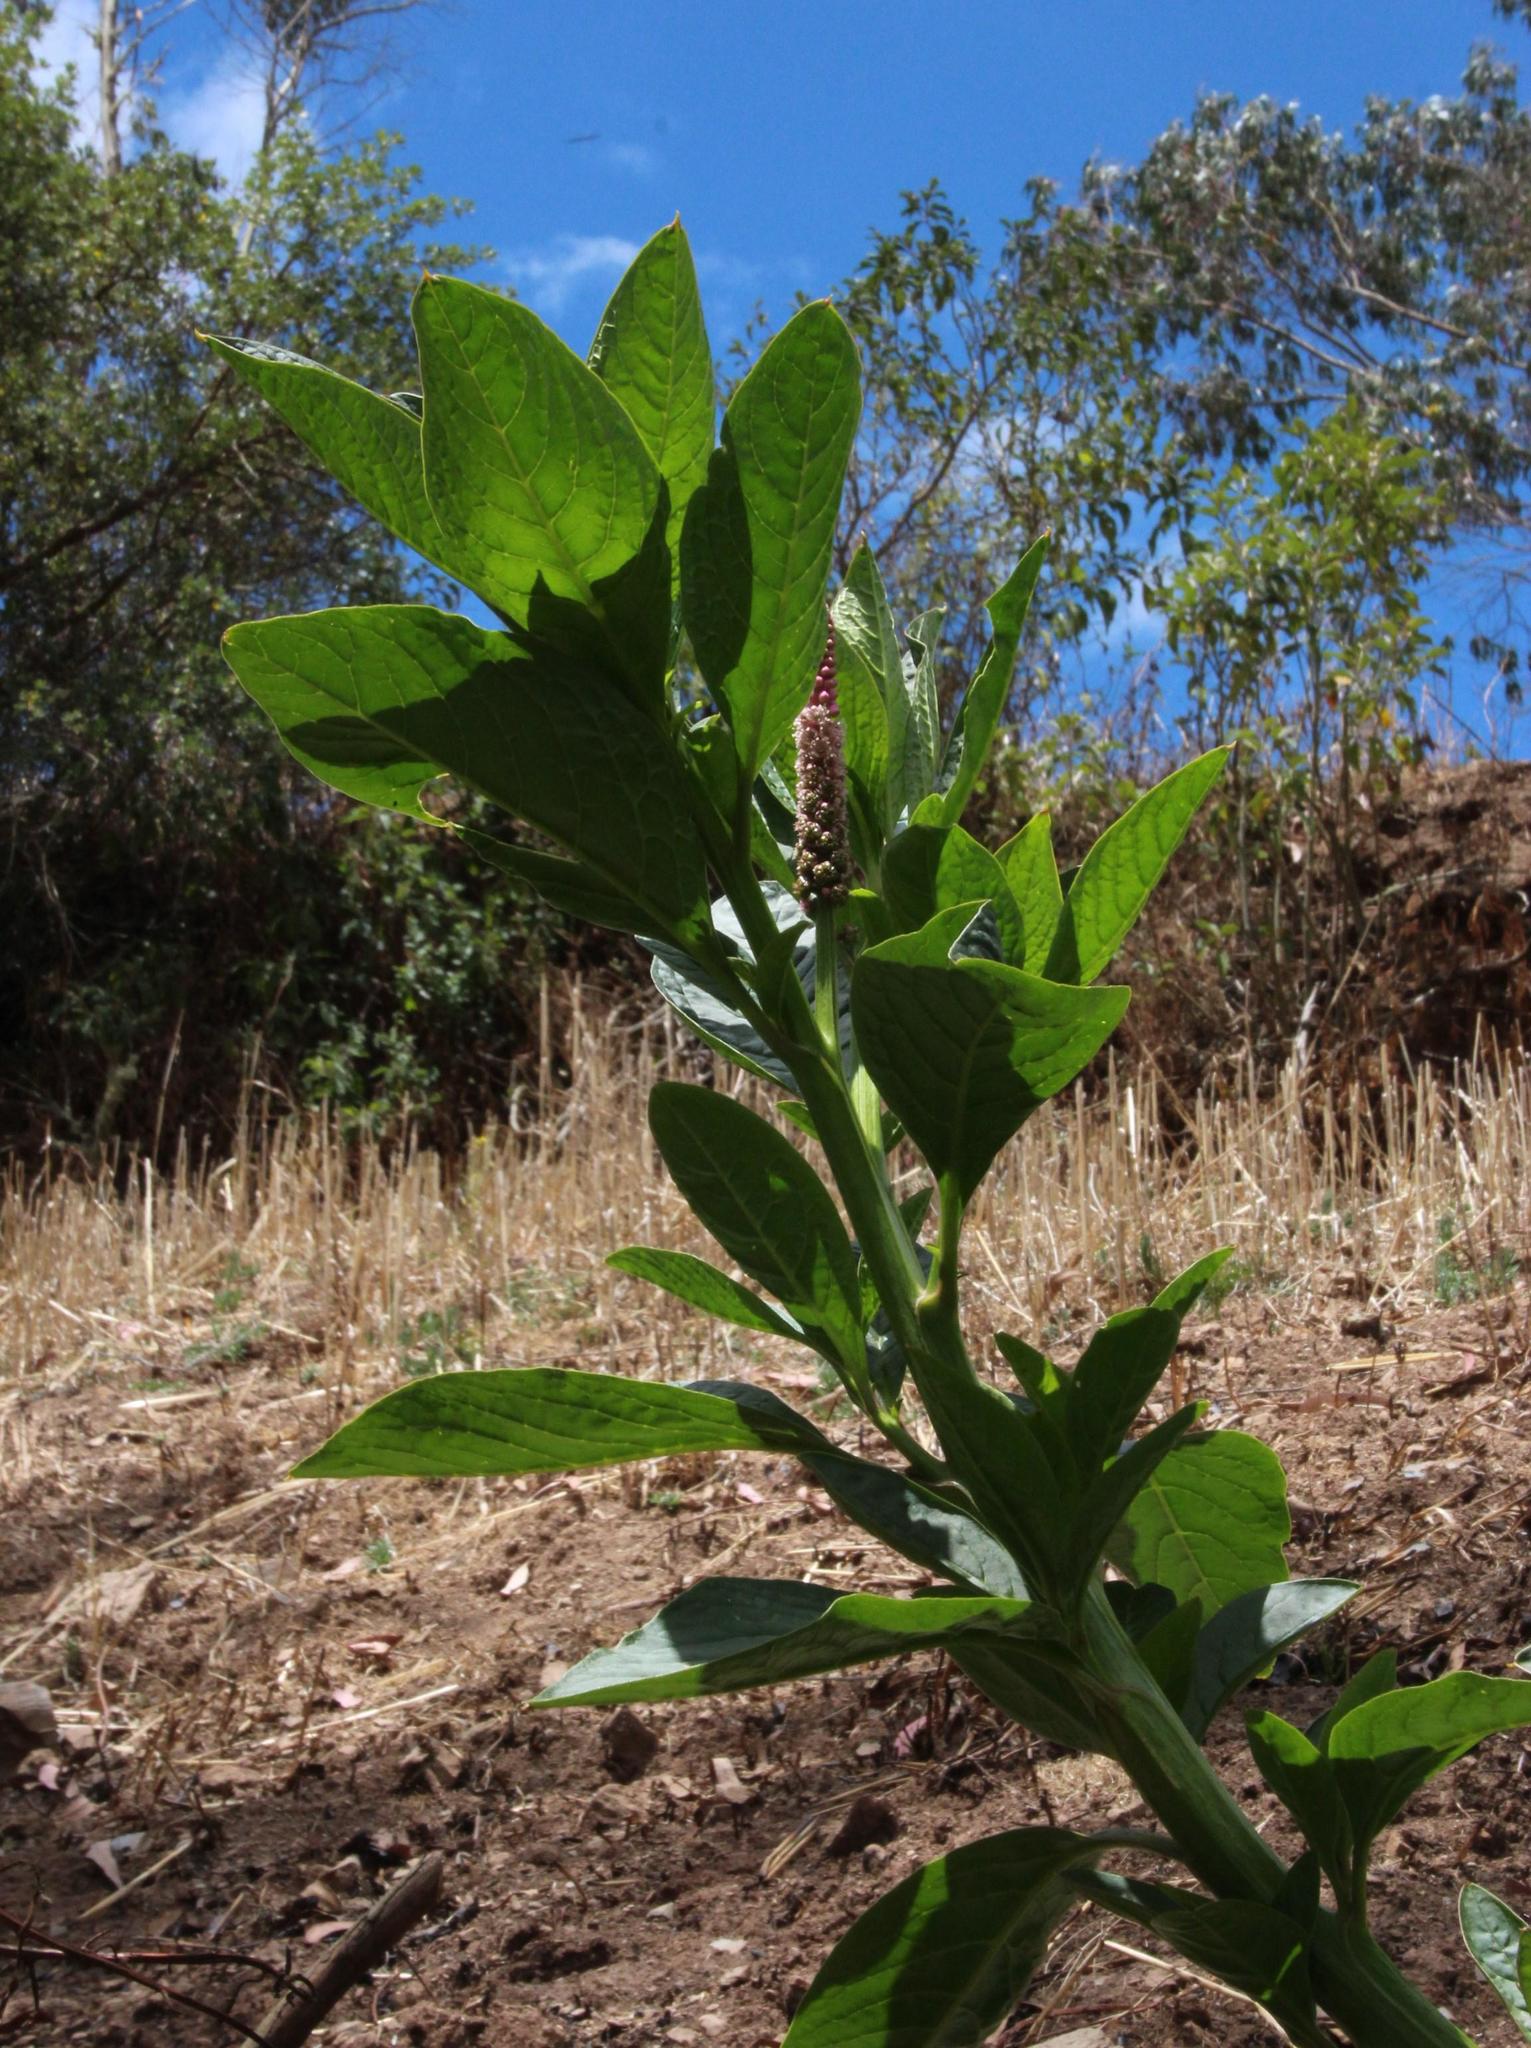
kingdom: Plantae
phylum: Tracheophyta
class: Magnoliopsida
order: Caryophyllales
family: Phytolaccaceae
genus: Phytolacca
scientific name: Phytolacca bogotensis
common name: Southern pokeweed
